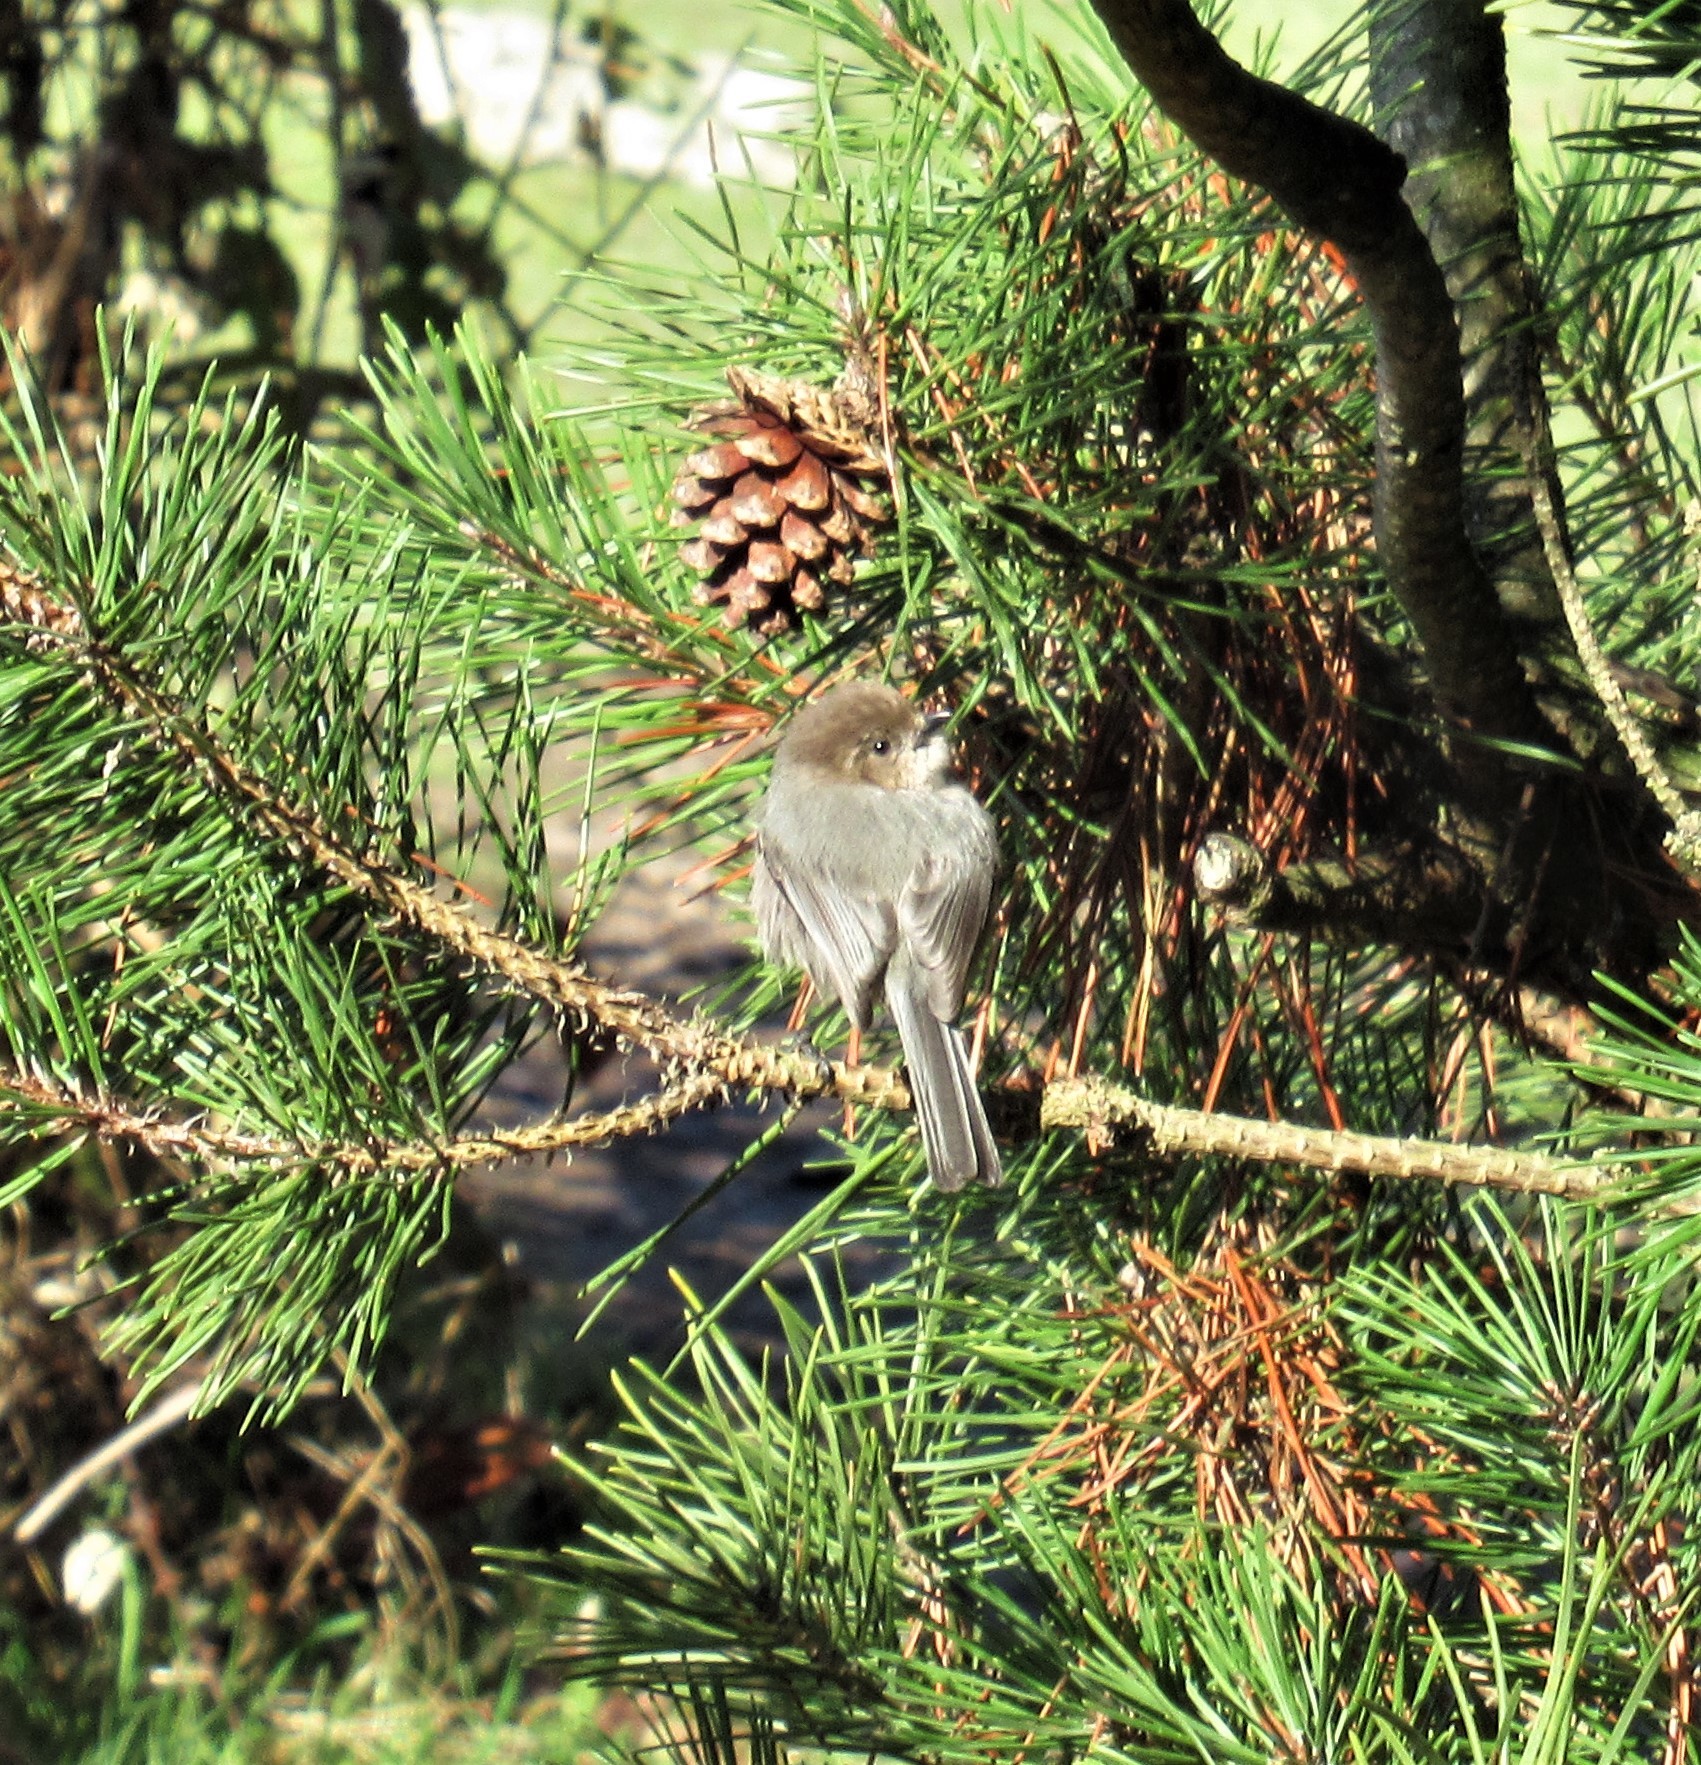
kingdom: Animalia
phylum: Chordata
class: Aves
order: Passeriformes
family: Aegithalidae
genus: Psaltriparus
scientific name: Psaltriparus minimus
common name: American bushtit
